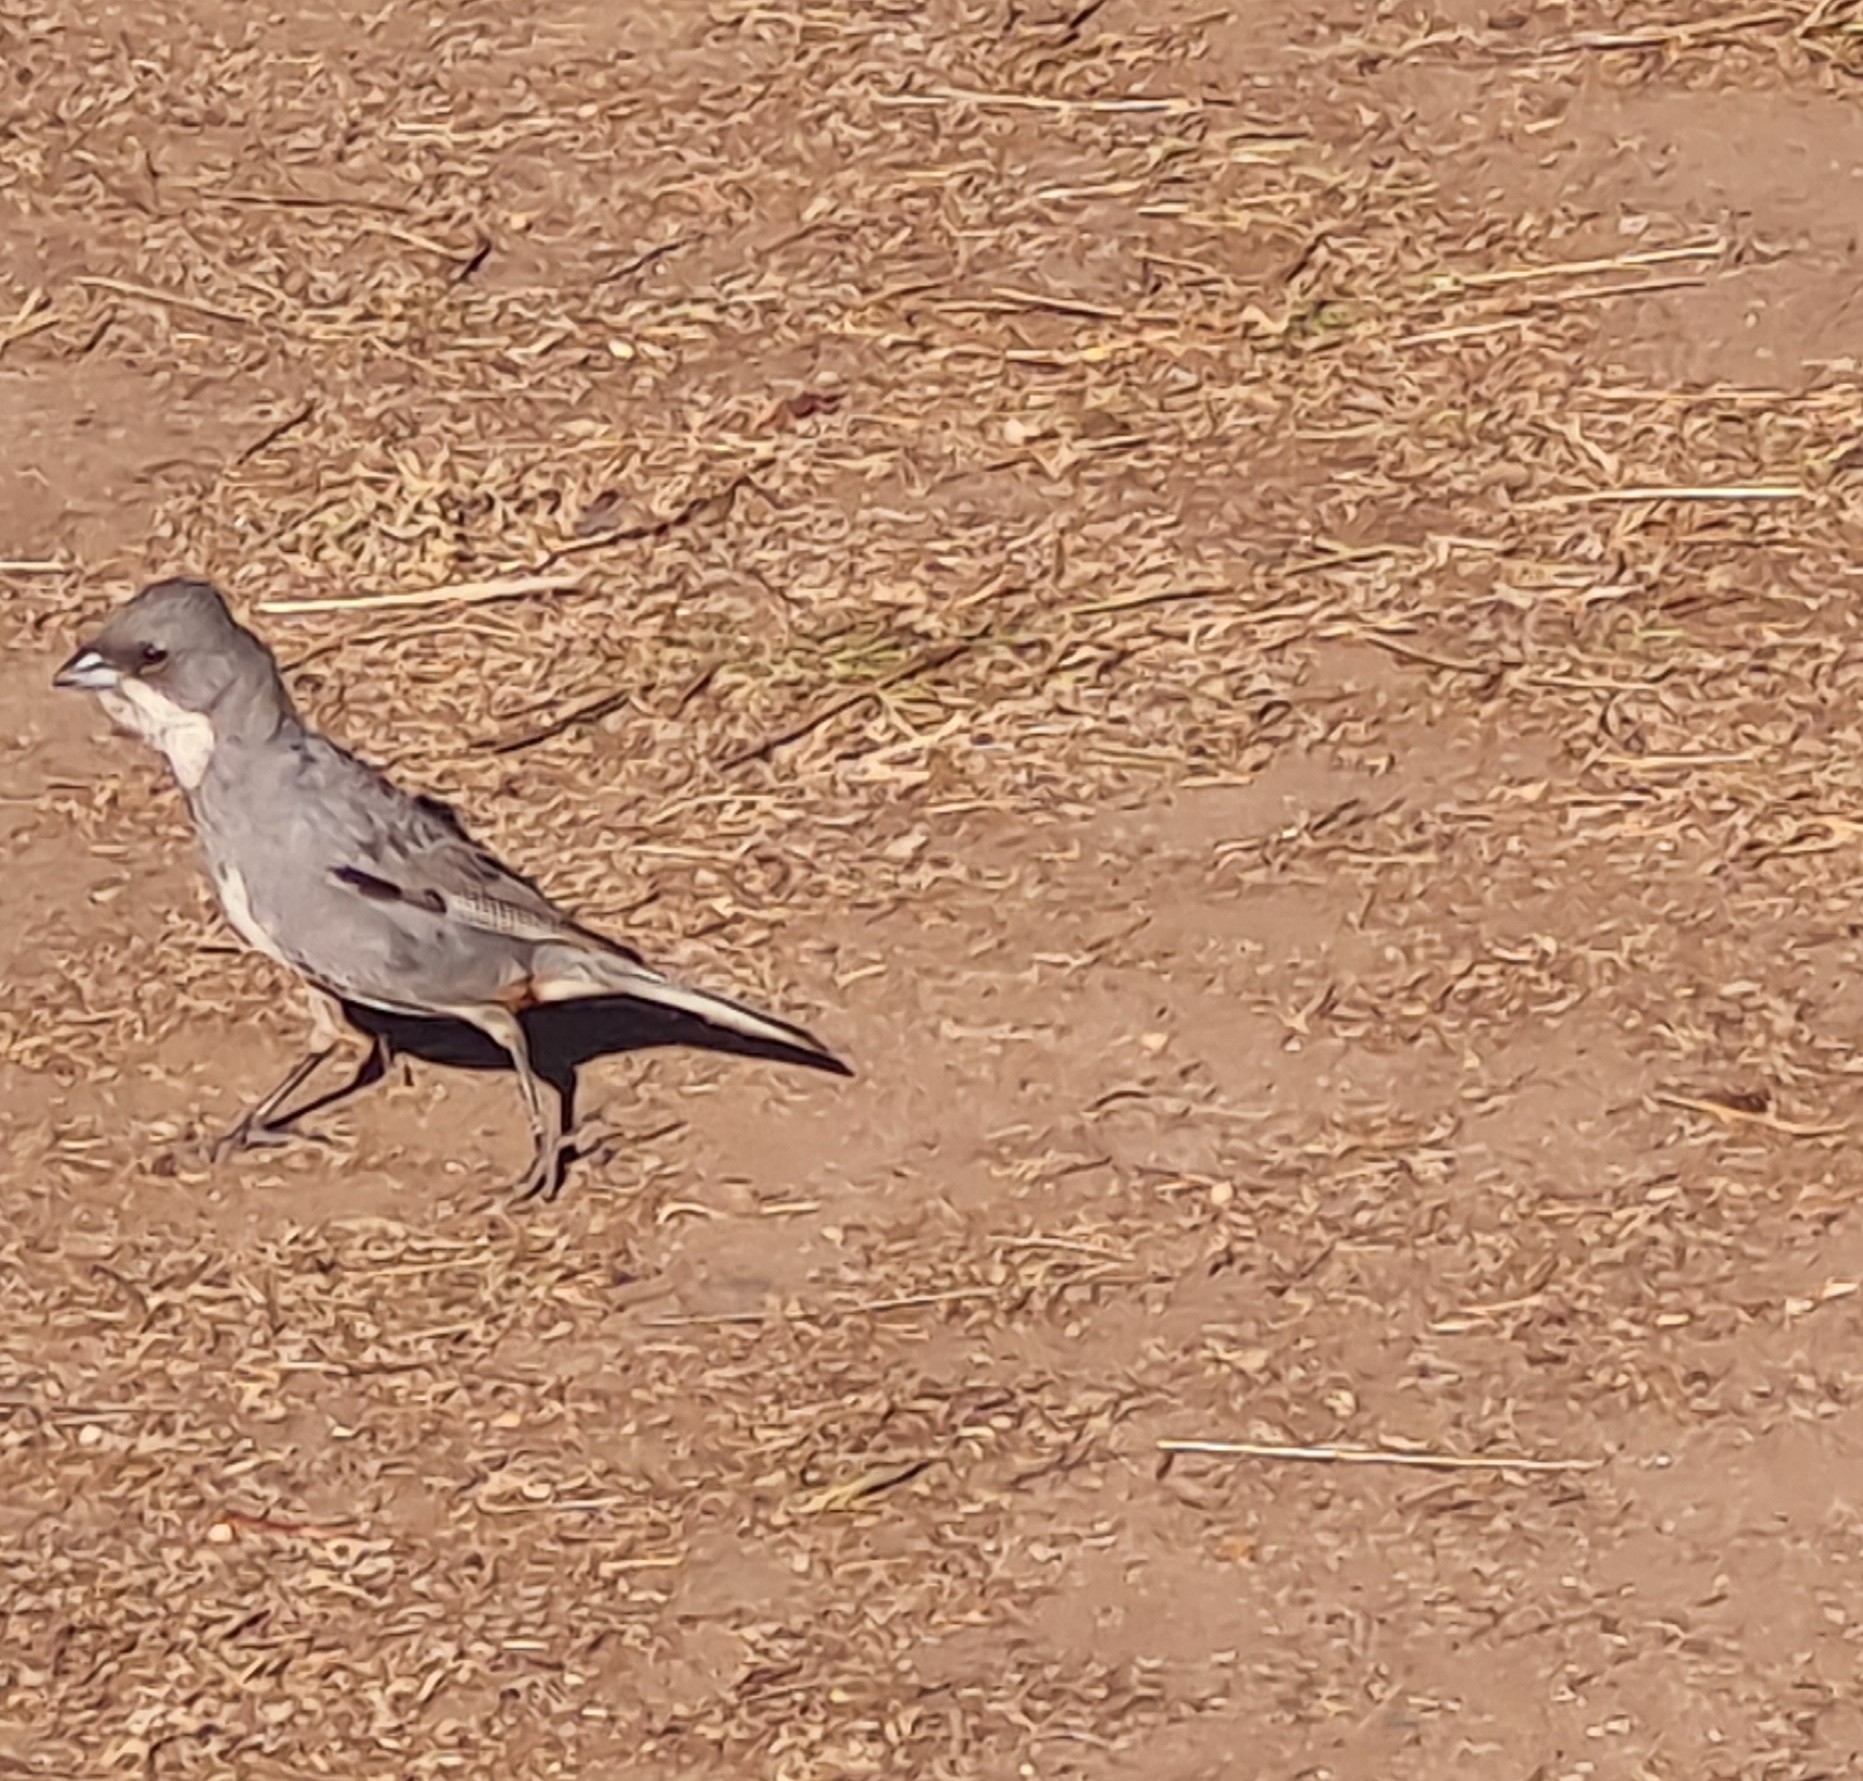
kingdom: Animalia
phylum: Chordata
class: Aves
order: Passeriformes
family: Thraupidae
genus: Diuca
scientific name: Diuca diuca
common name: Common diuca finch
